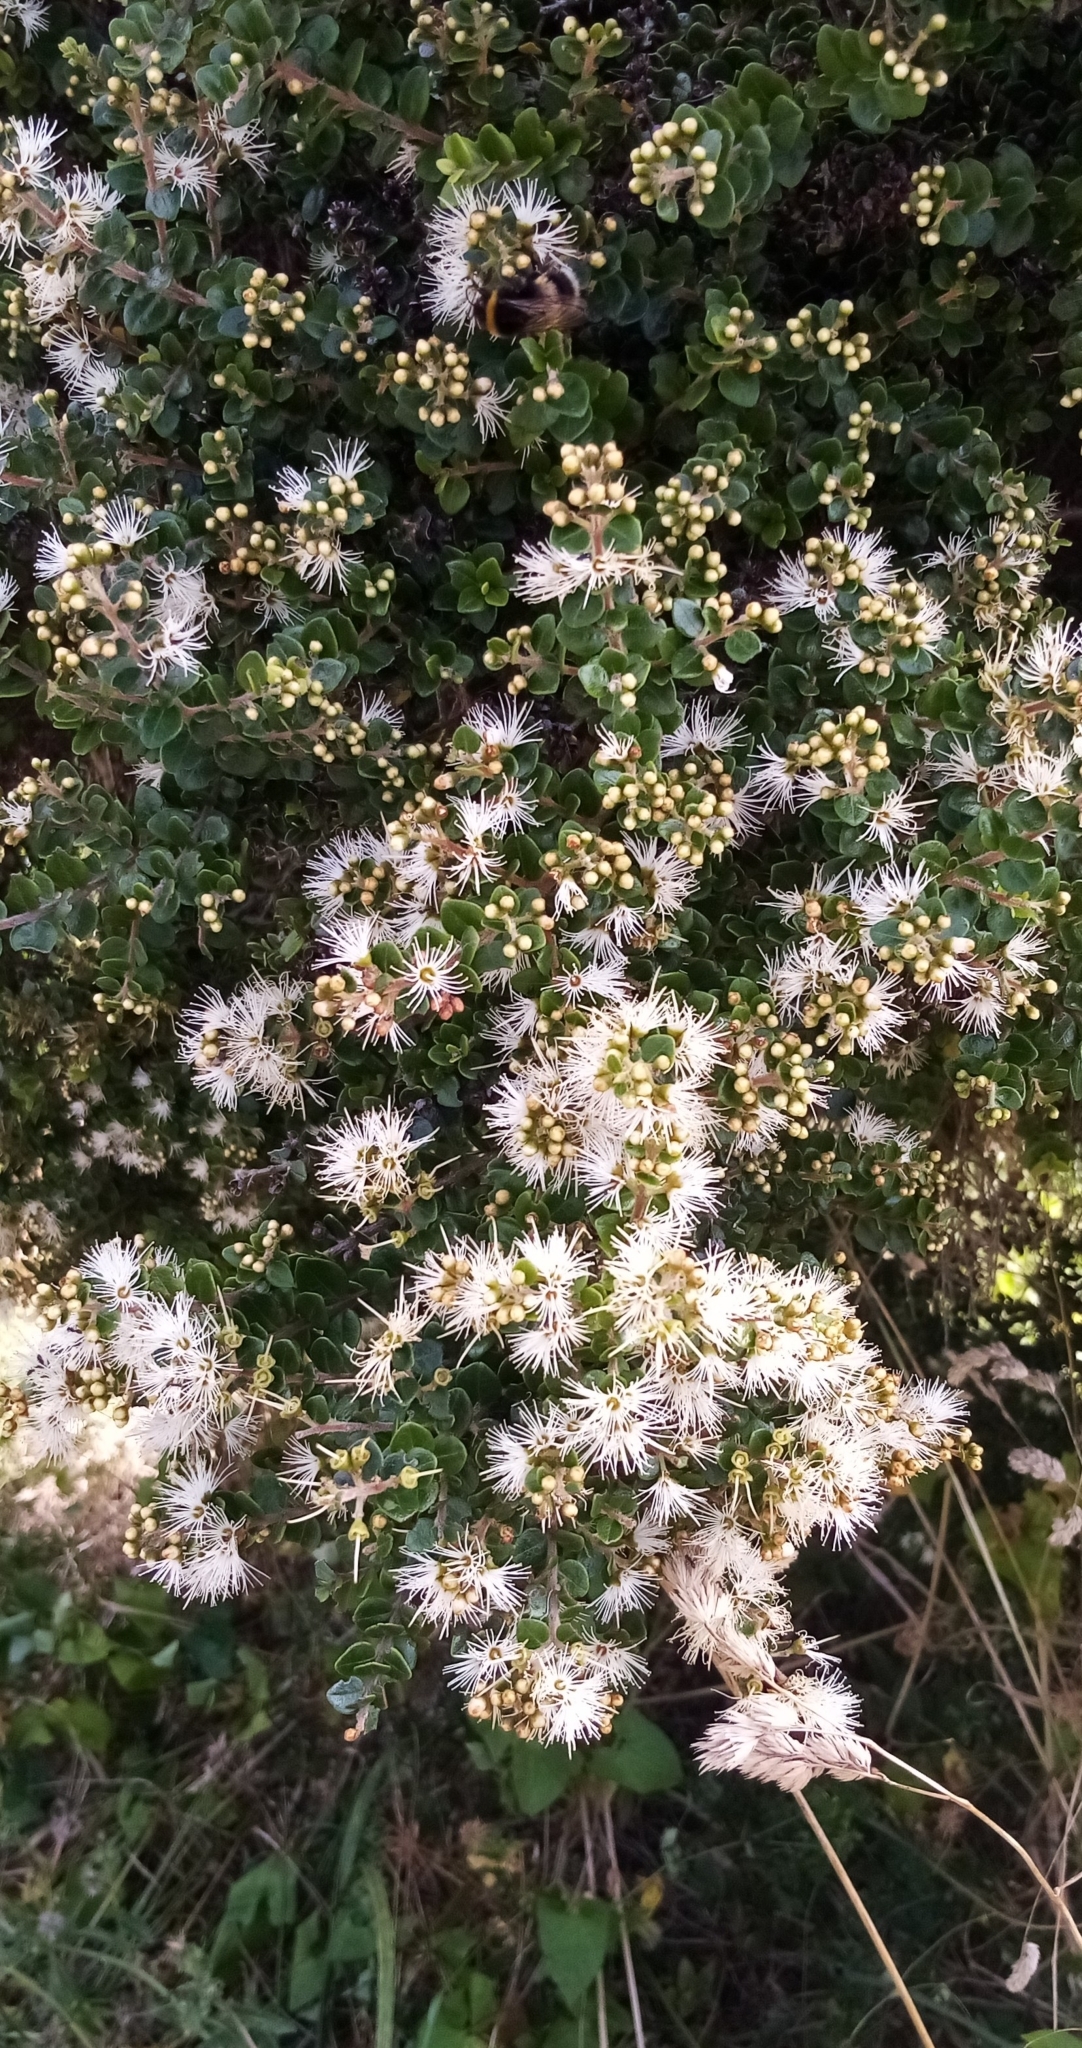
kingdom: Plantae
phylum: Tracheophyta
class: Magnoliopsida
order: Myrtales
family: Myrtaceae
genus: Metrosideros
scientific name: Metrosideros perforata
